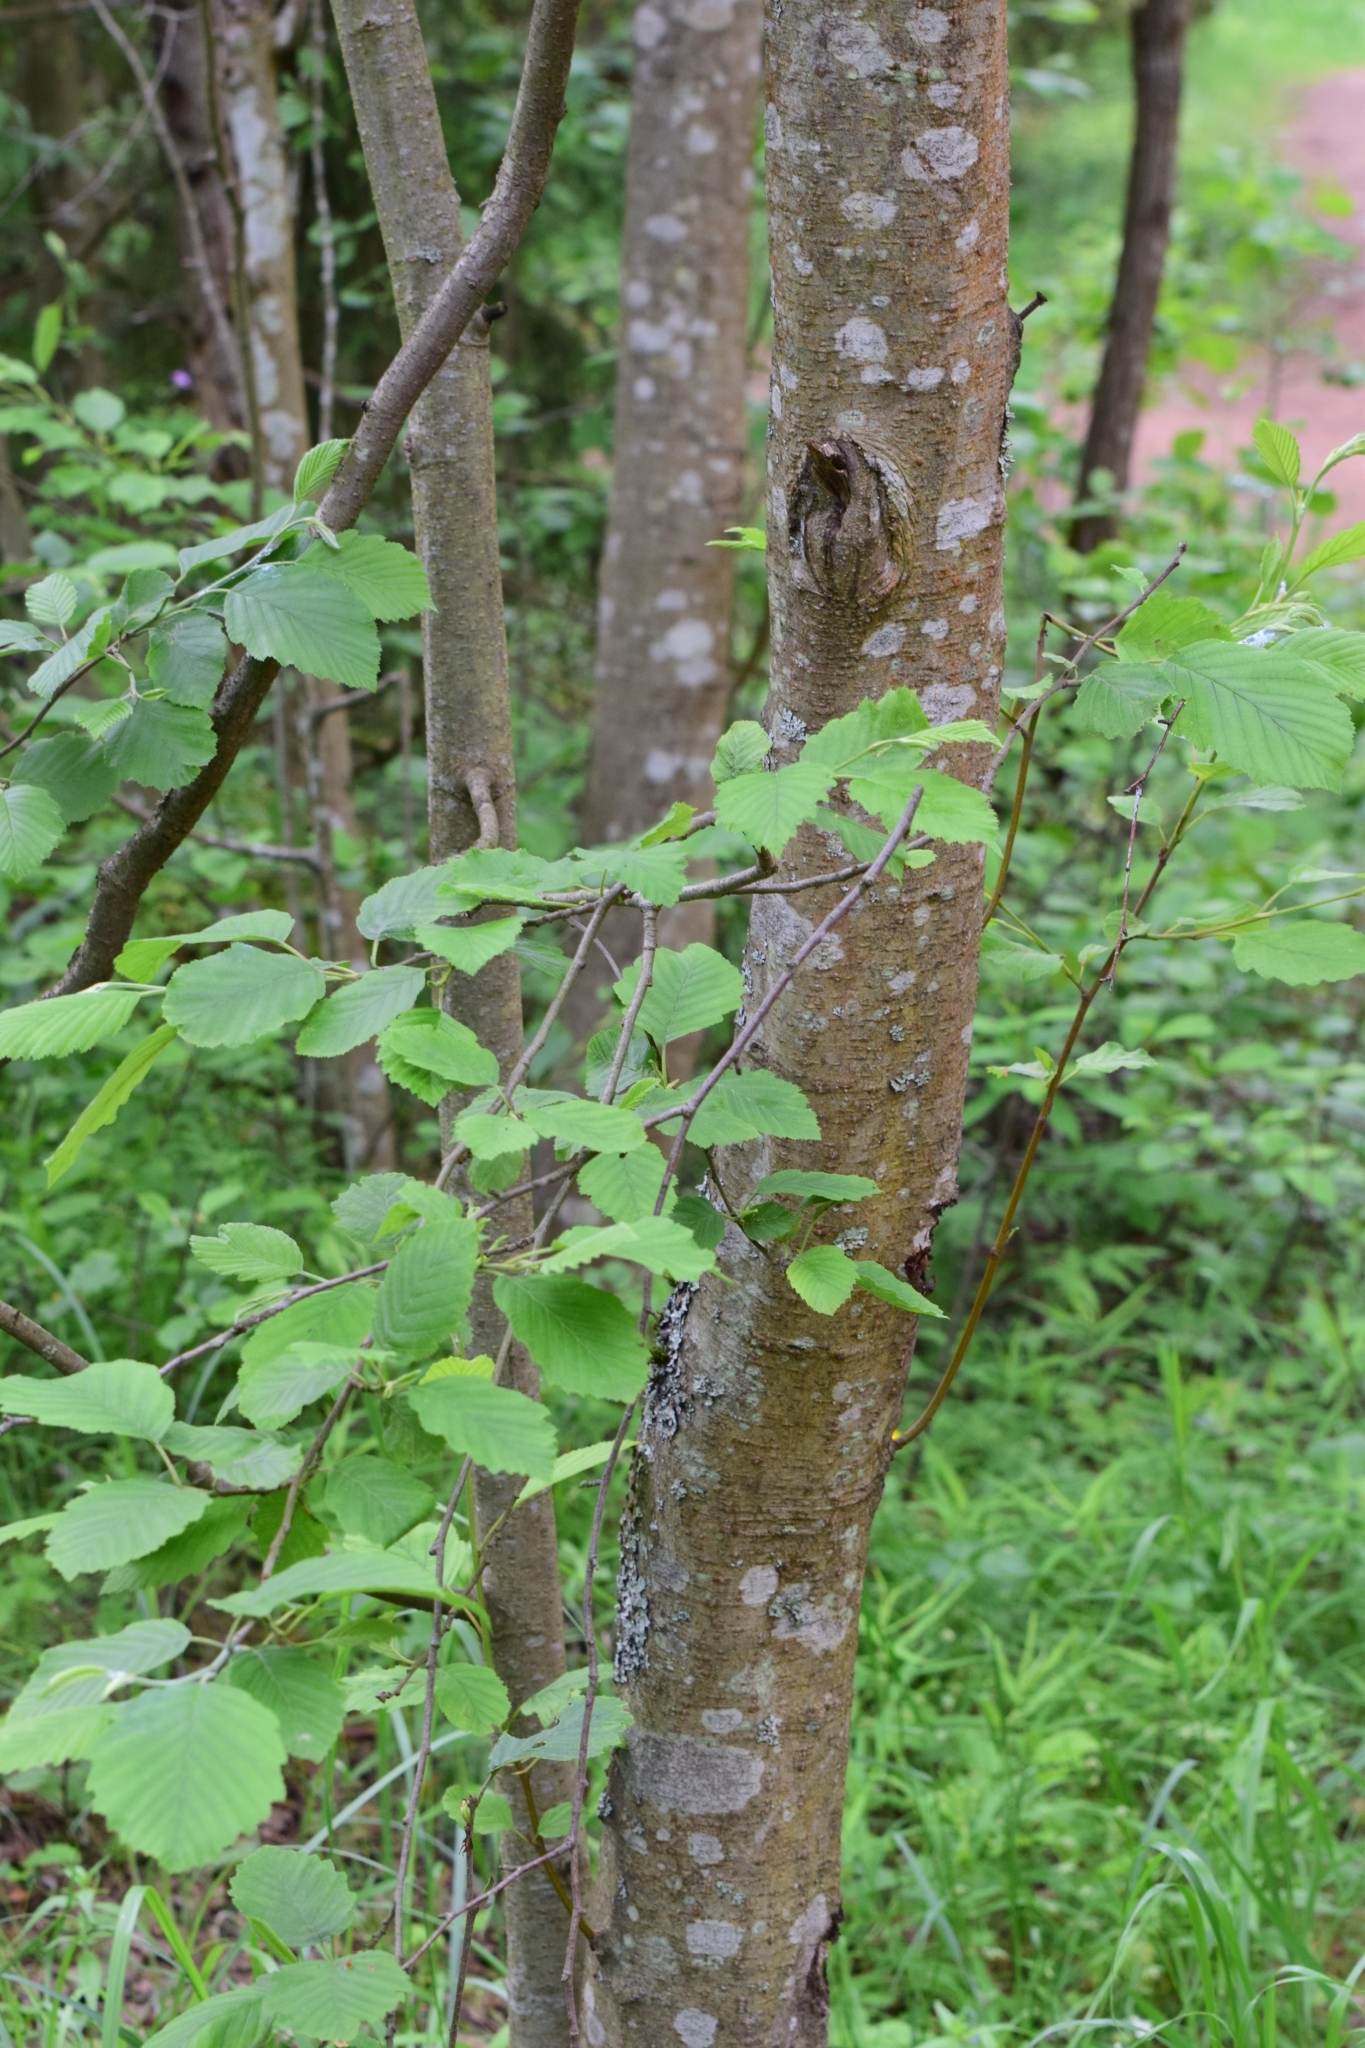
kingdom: Plantae
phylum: Tracheophyta
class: Magnoliopsida
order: Fagales
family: Betulaceae
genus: Alnus
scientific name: Alnus incana
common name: Grey alder
